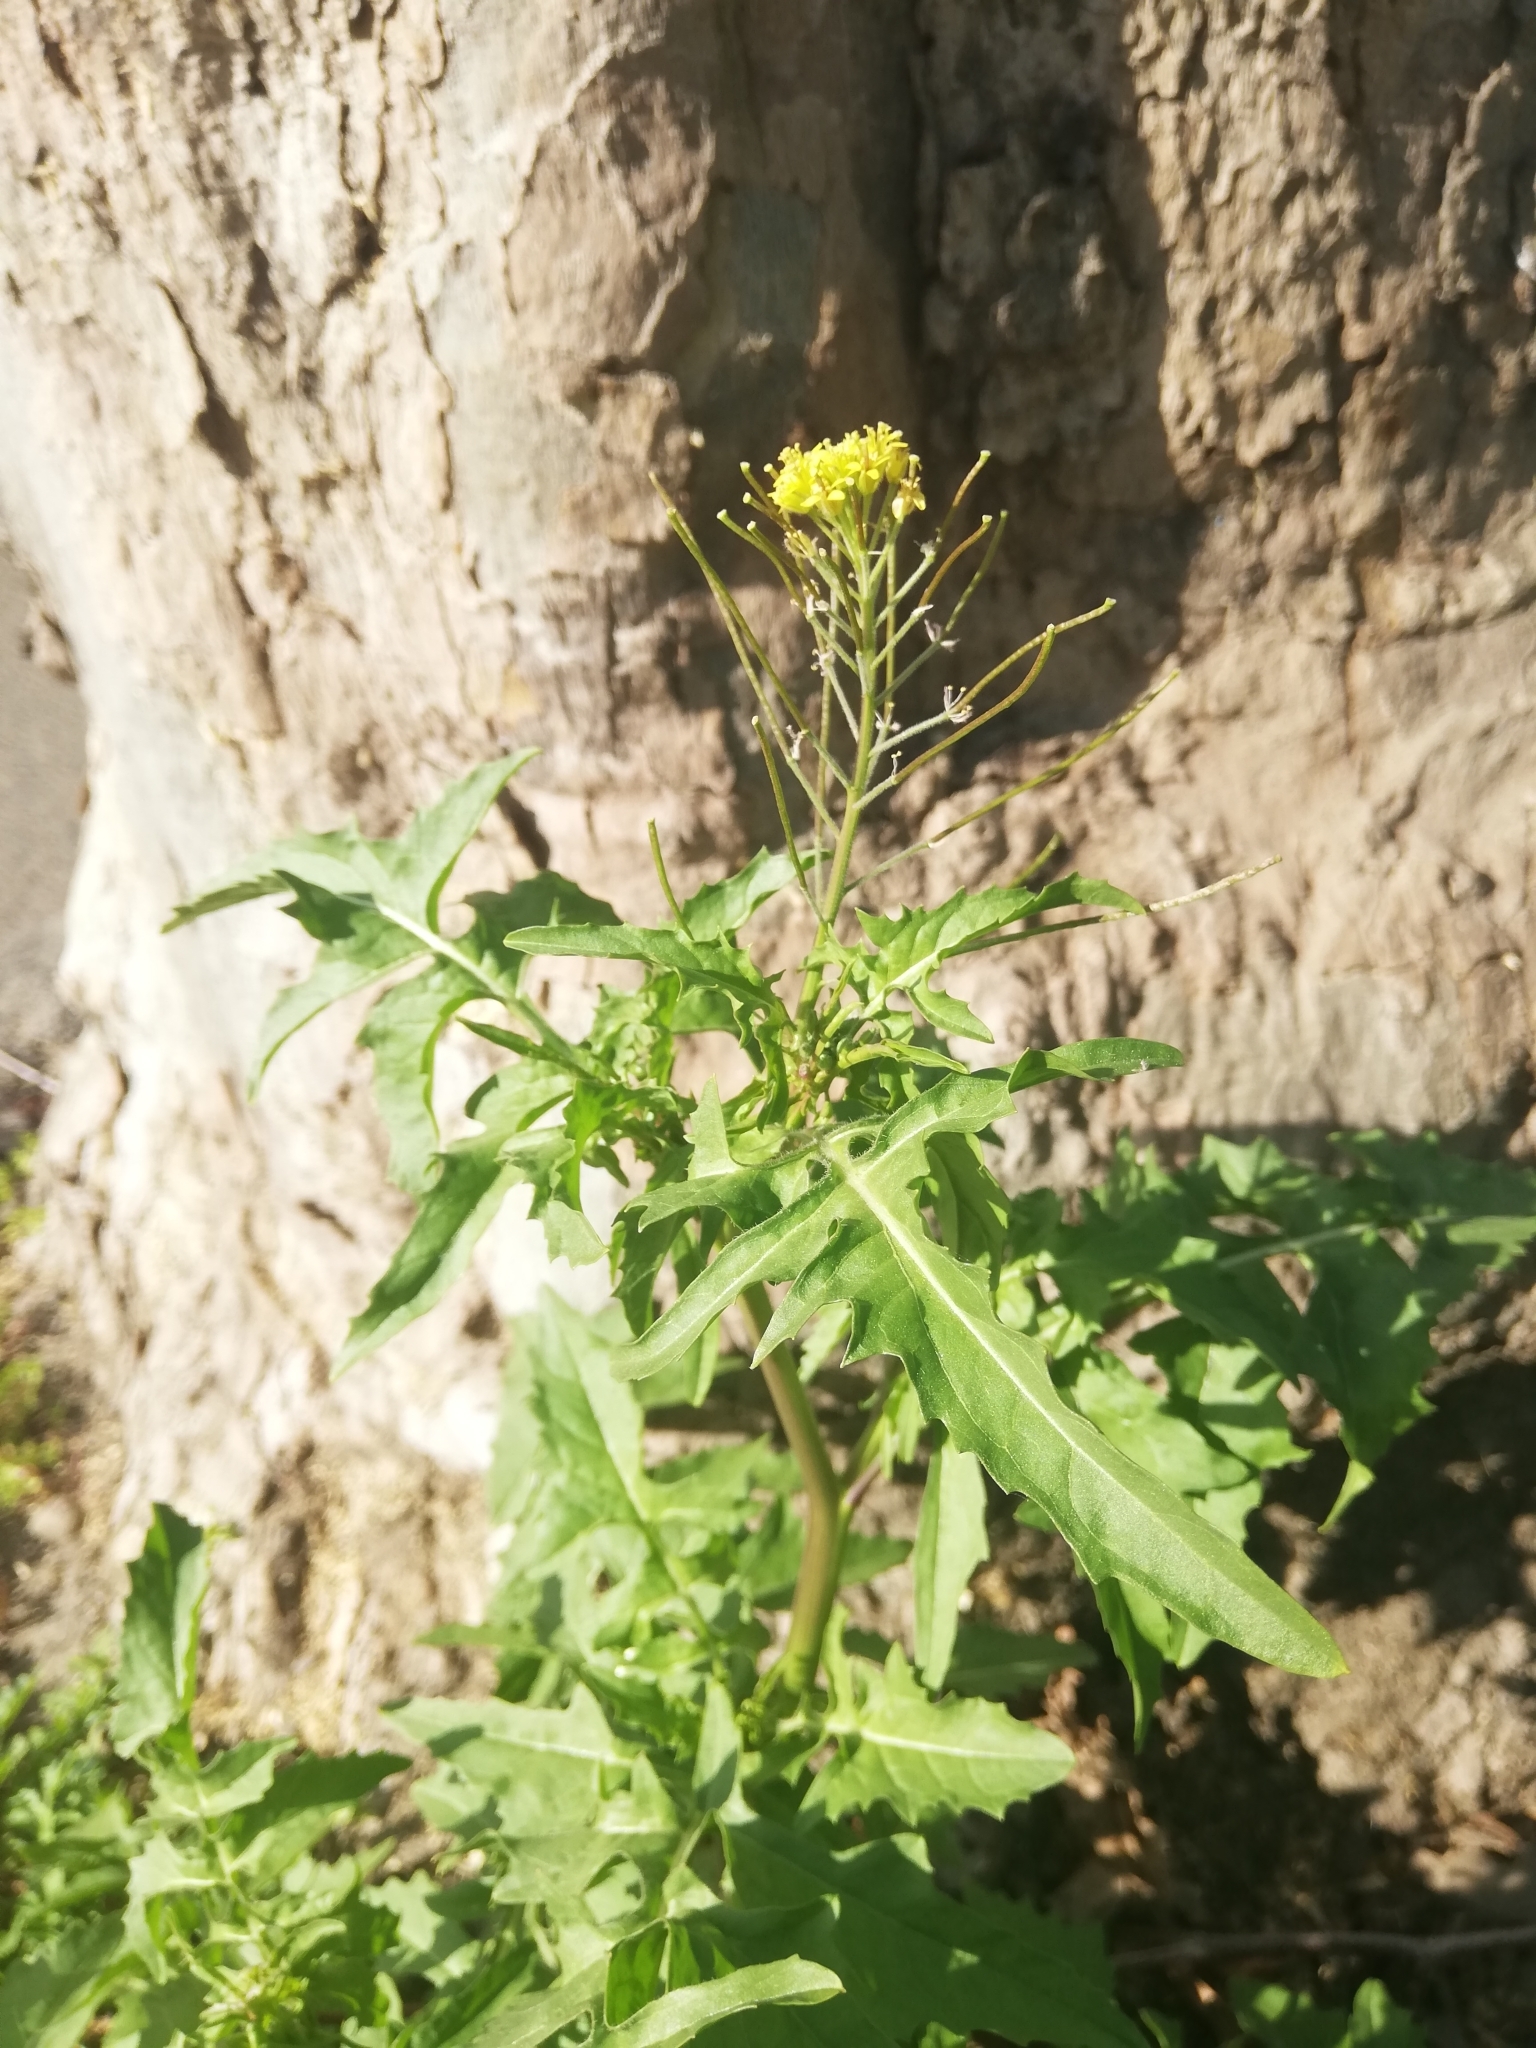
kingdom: Plantae
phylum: Tracheophyta
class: Magnoliopsida
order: Brassicales
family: Brassicaceae
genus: Sisymbrium
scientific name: Sisymbrium irio
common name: London rocket
